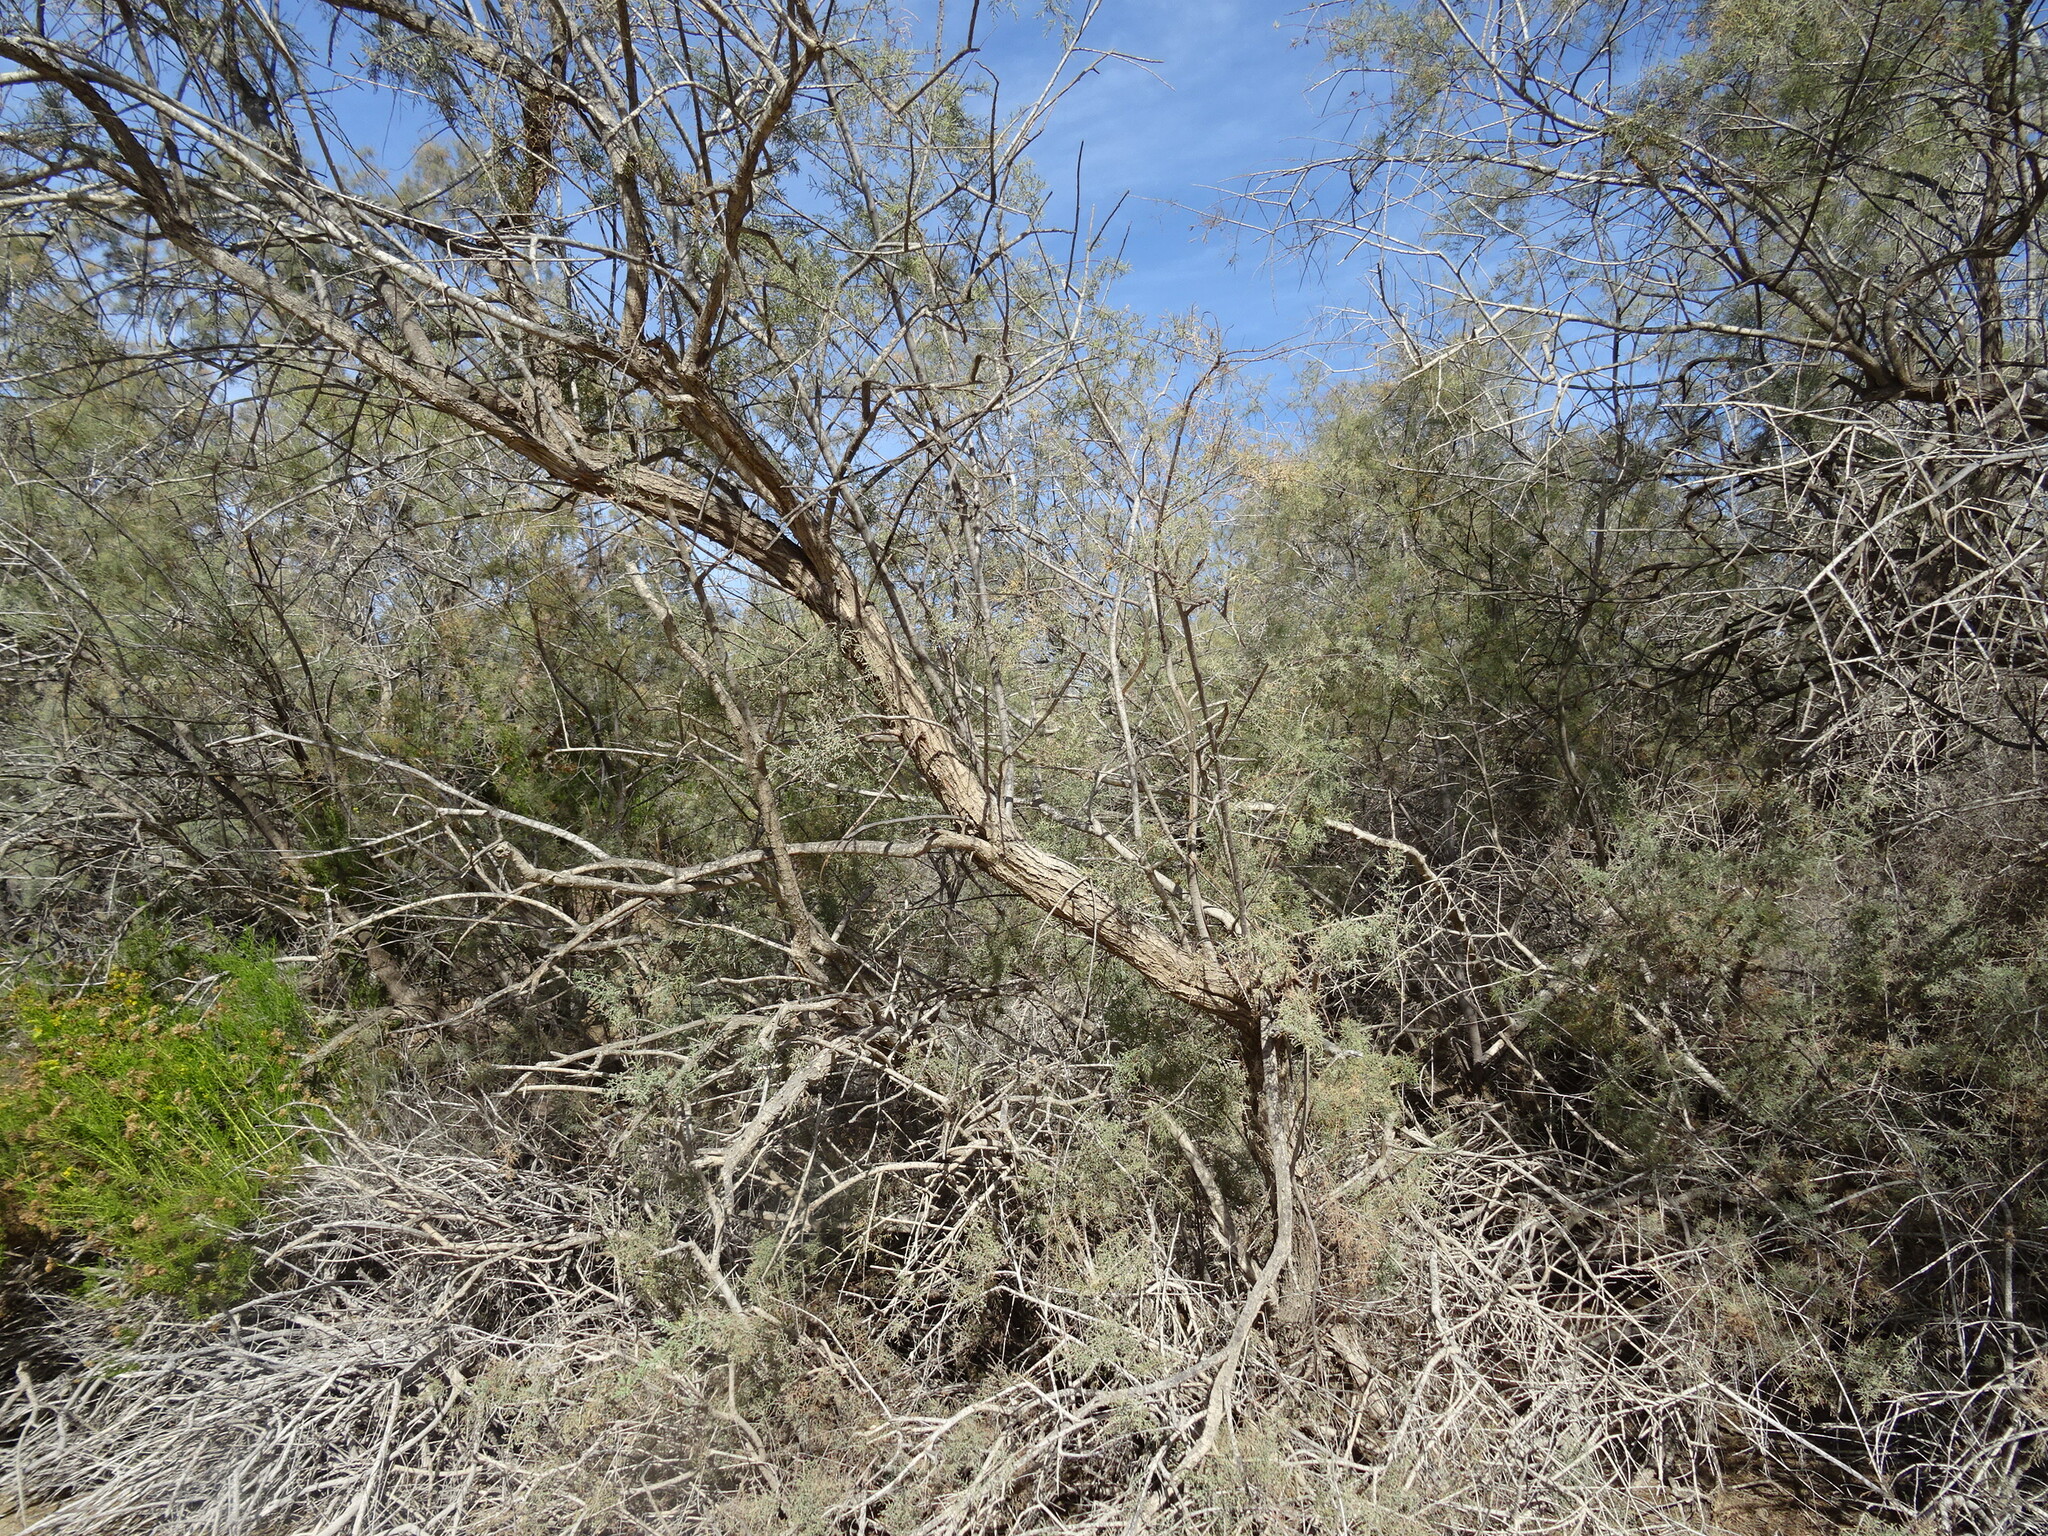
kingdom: Plantae
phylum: Tracheophyta
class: Magnoliopsida
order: Caryophyllales
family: Tamaricaceae
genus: Tamarix
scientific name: Tamarix canariensis
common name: Canary island tamarisk
